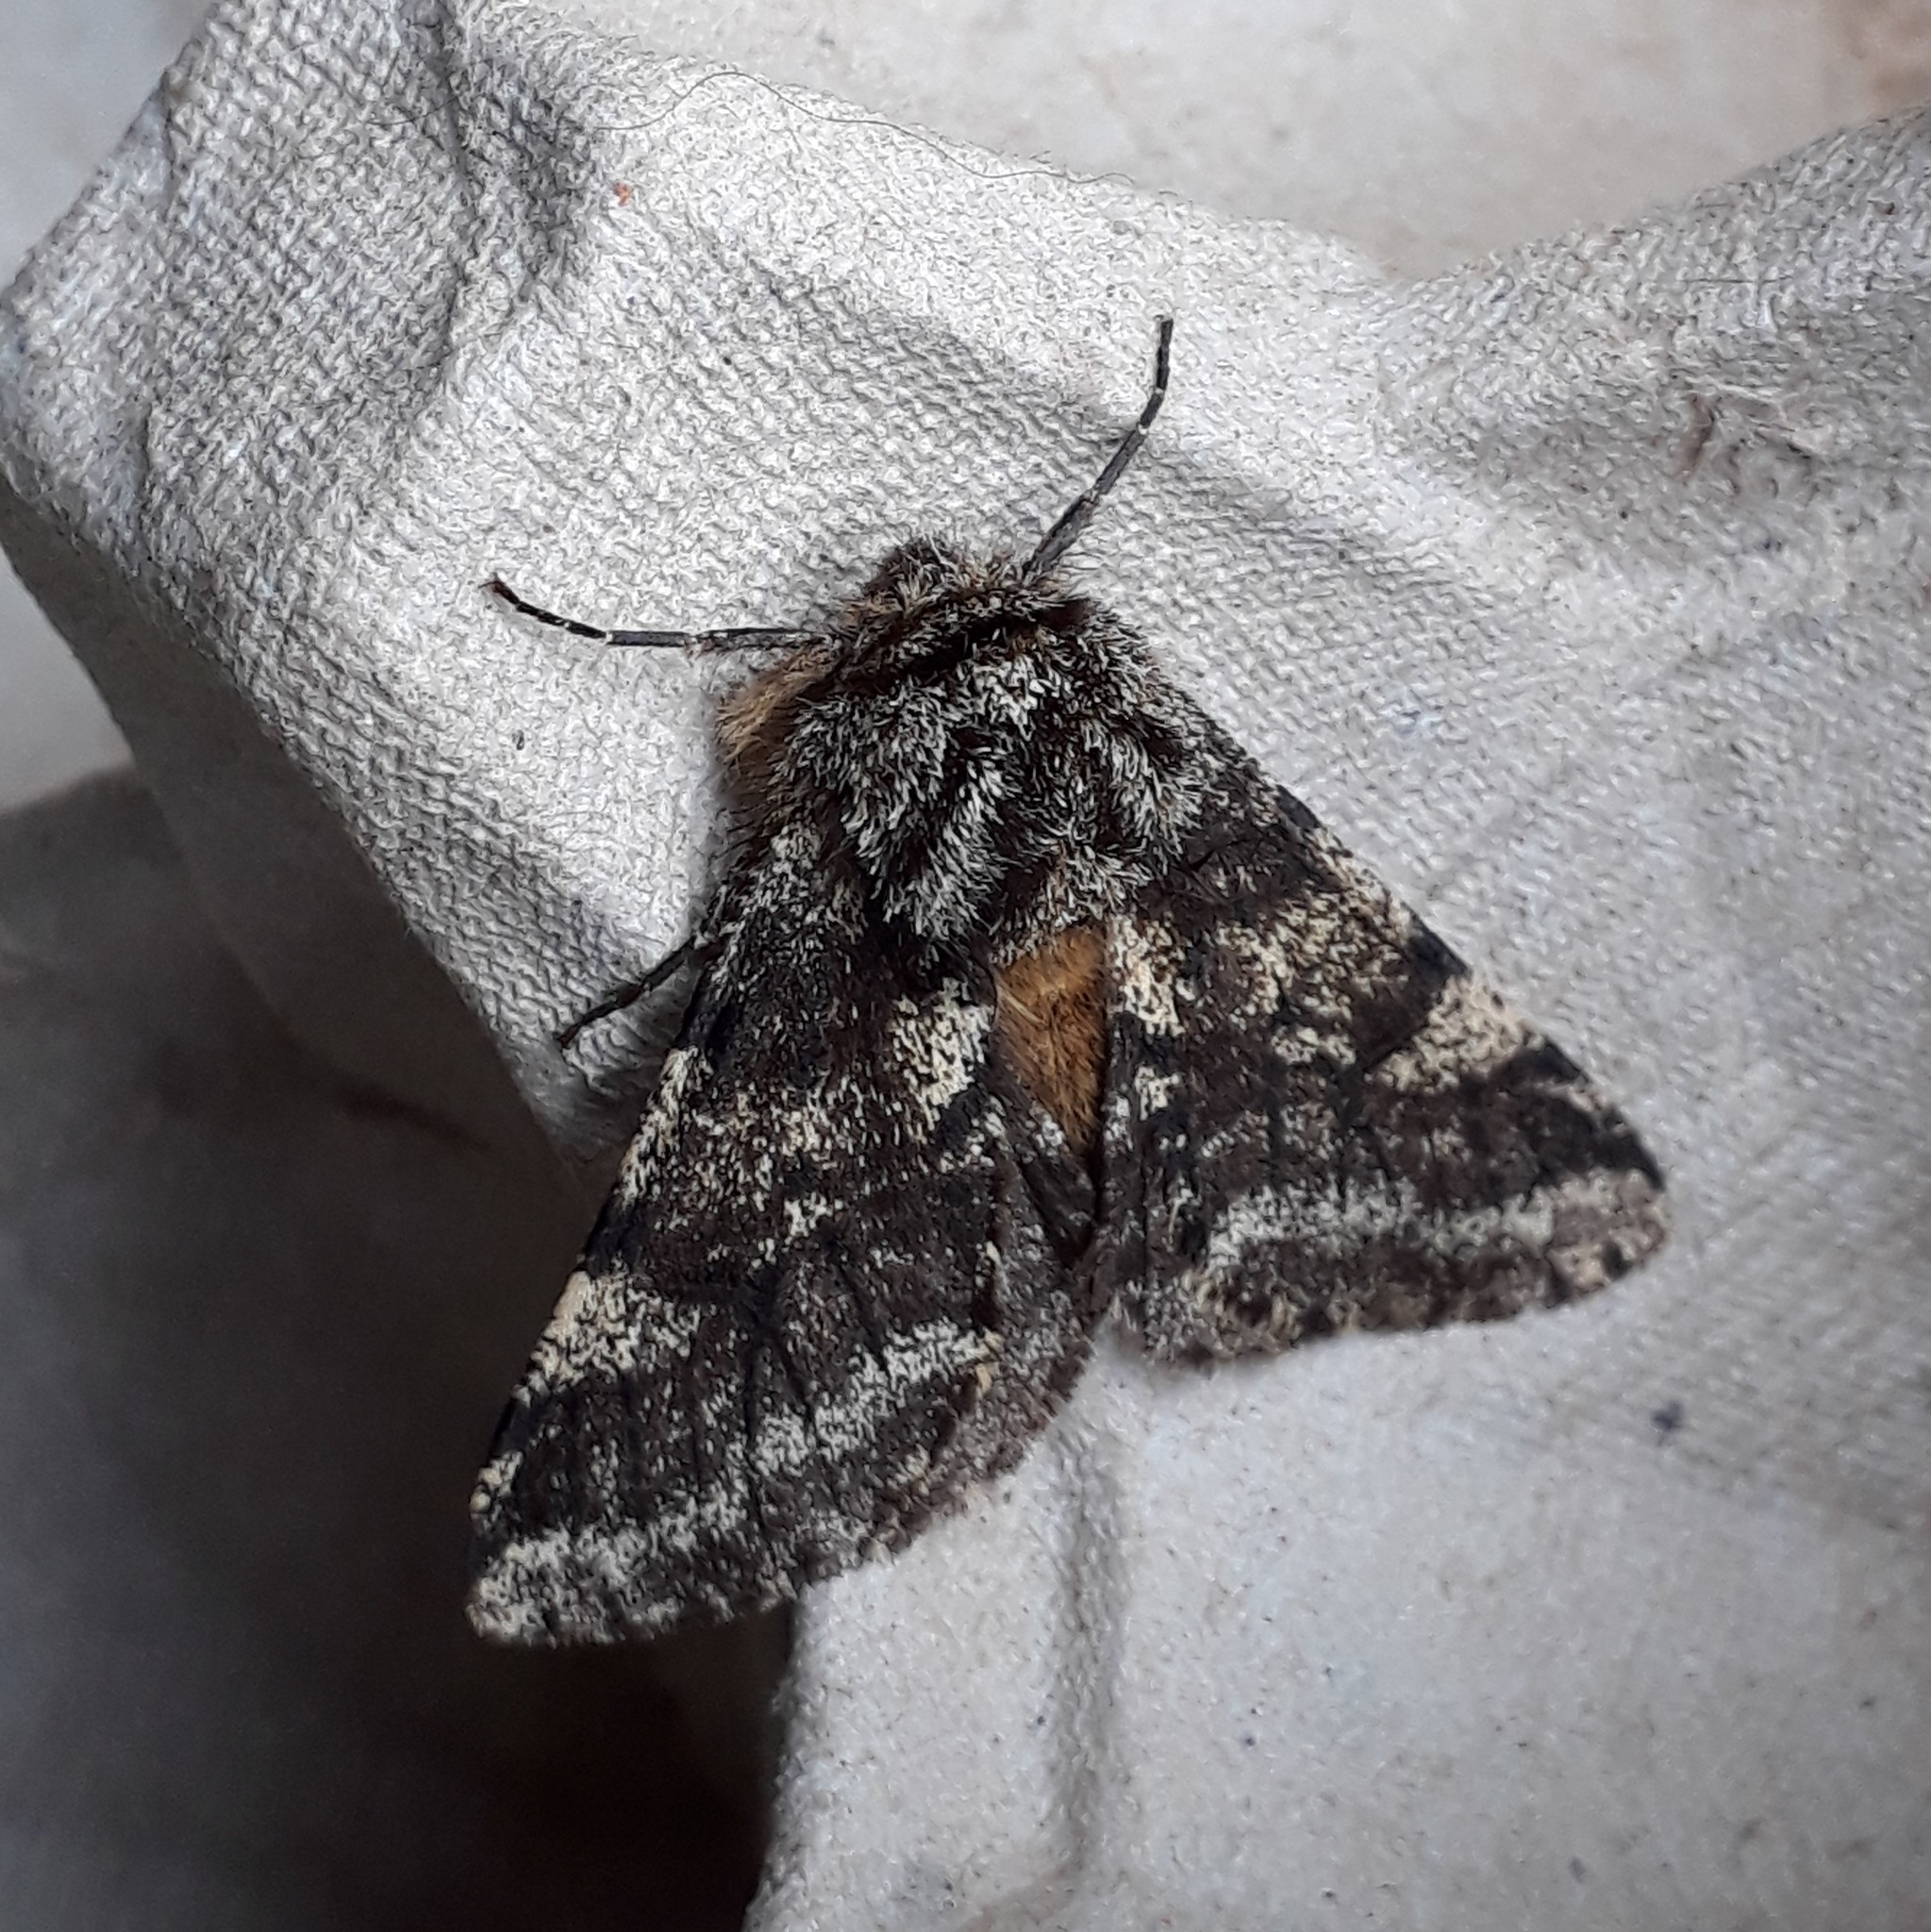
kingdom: Animalia
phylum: Arthropoda
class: Insecta
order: Lepidoptera
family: Geometridae
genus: Lycia
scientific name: Lycia hirtaria
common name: Brindled beauty
